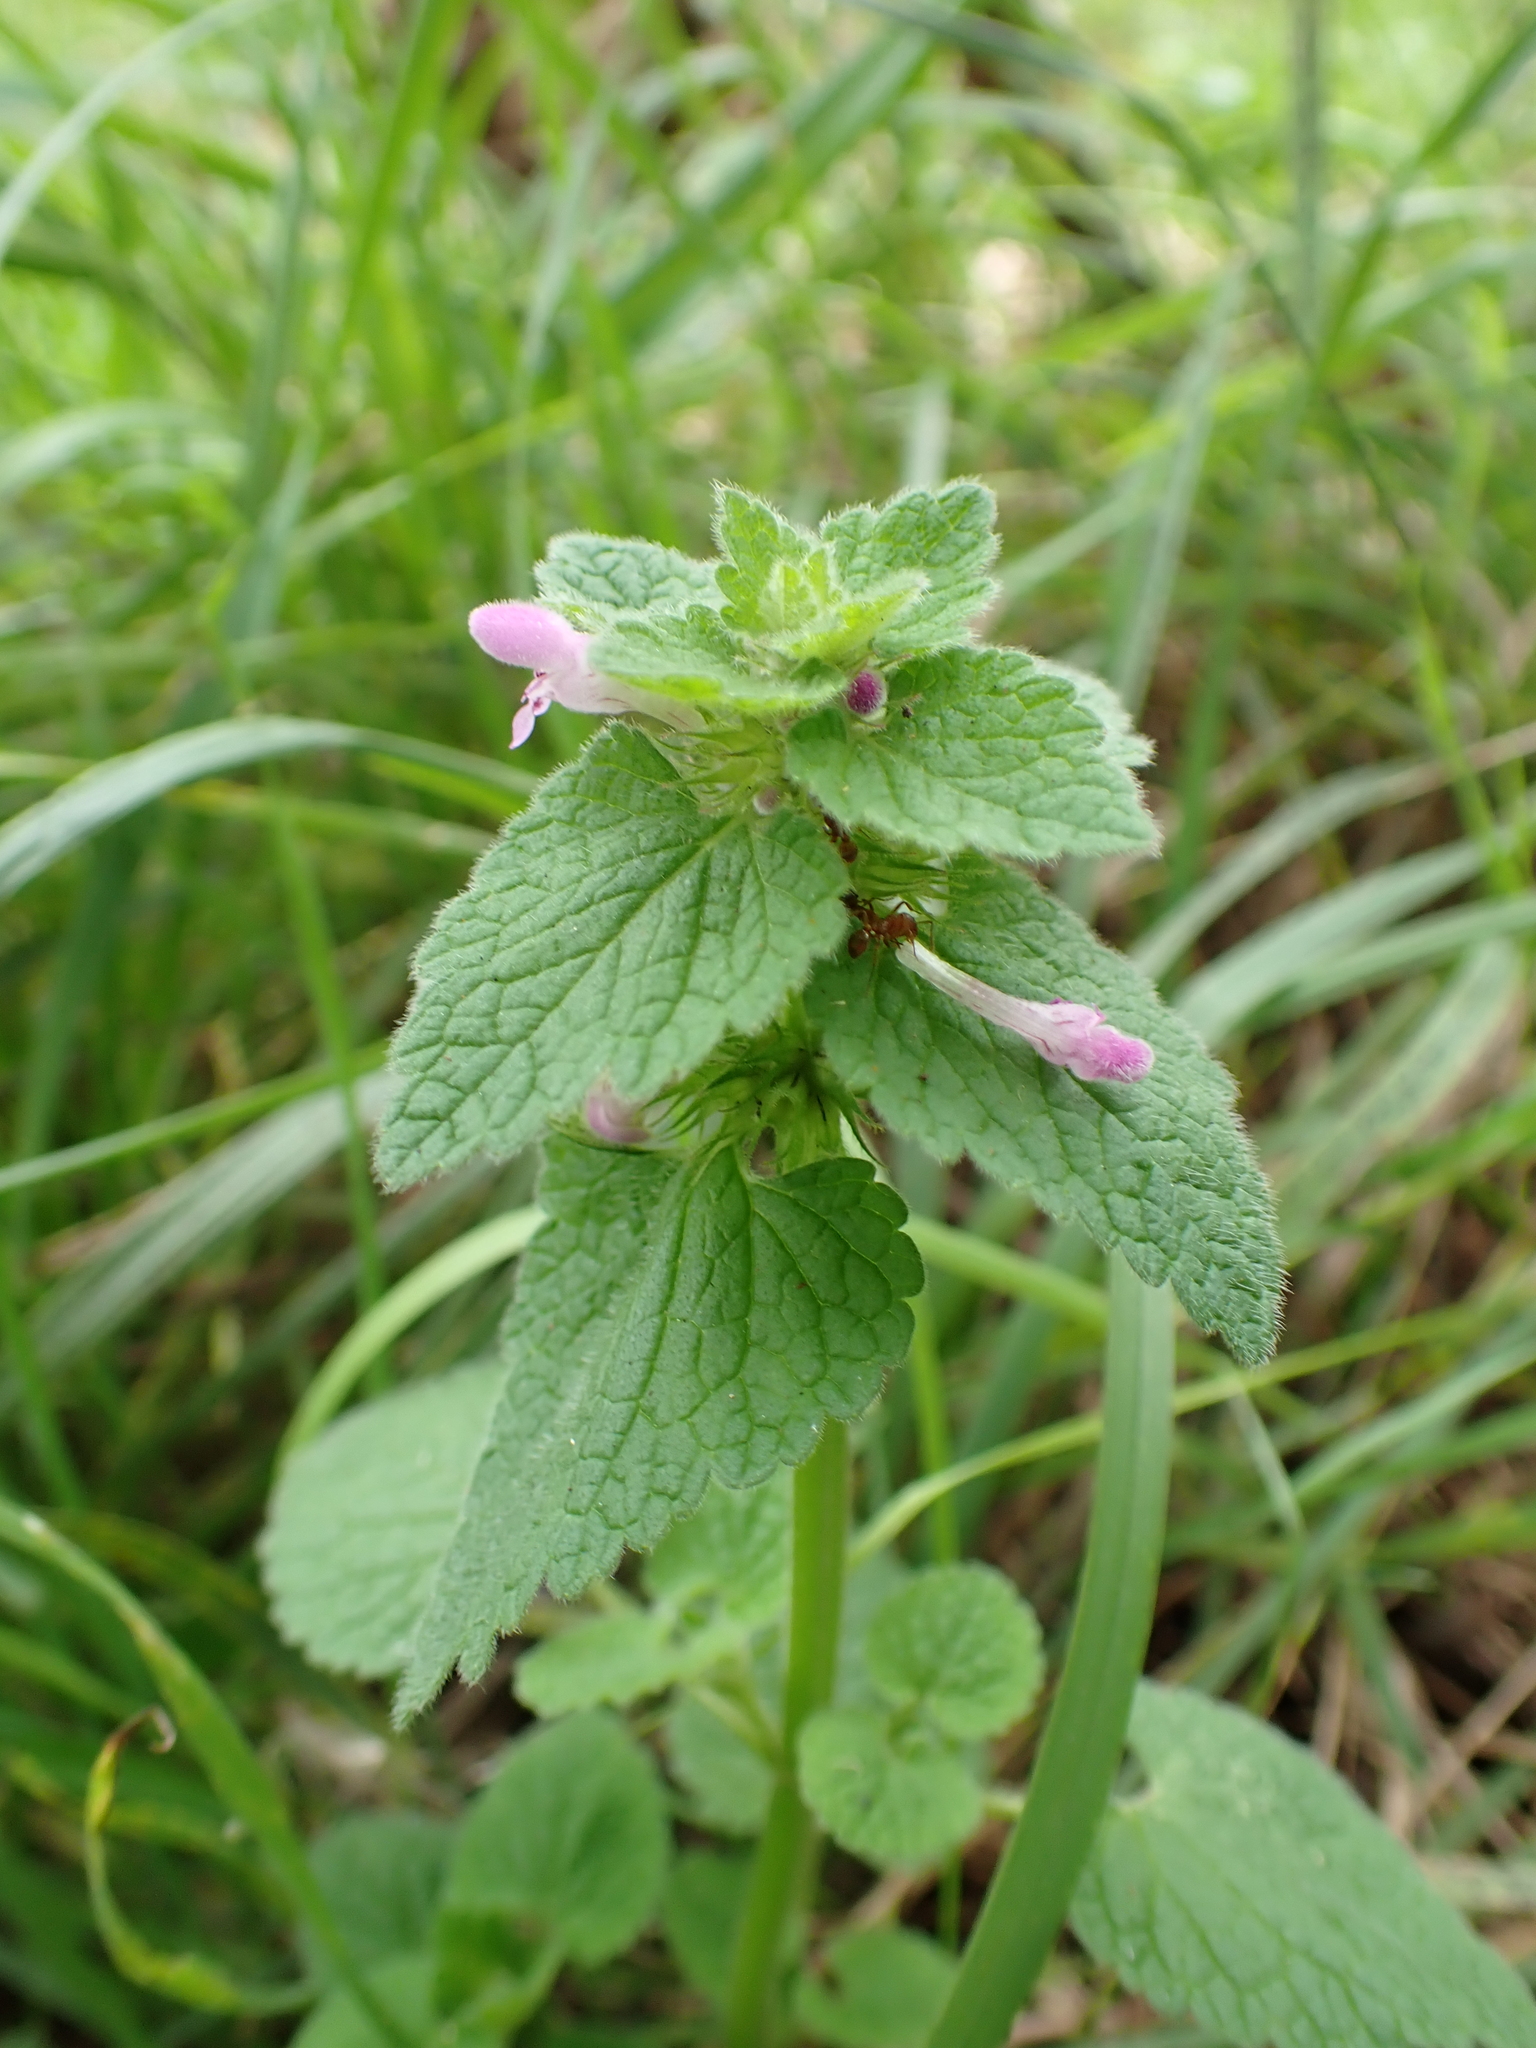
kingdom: Plantae
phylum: Tracheophyta
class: Magnoliopsida
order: Lamiales
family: Lamiaceae
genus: Lamium
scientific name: Lamium purpureum
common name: Red dead-nettle
